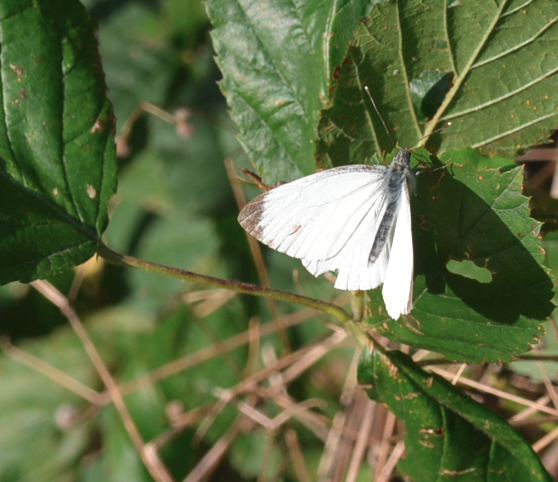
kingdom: Animalia
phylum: Arthropoda
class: Insecta
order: Lepidoptera
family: Pieridae
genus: Pieris
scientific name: Pieris napi
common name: Green-veined white
